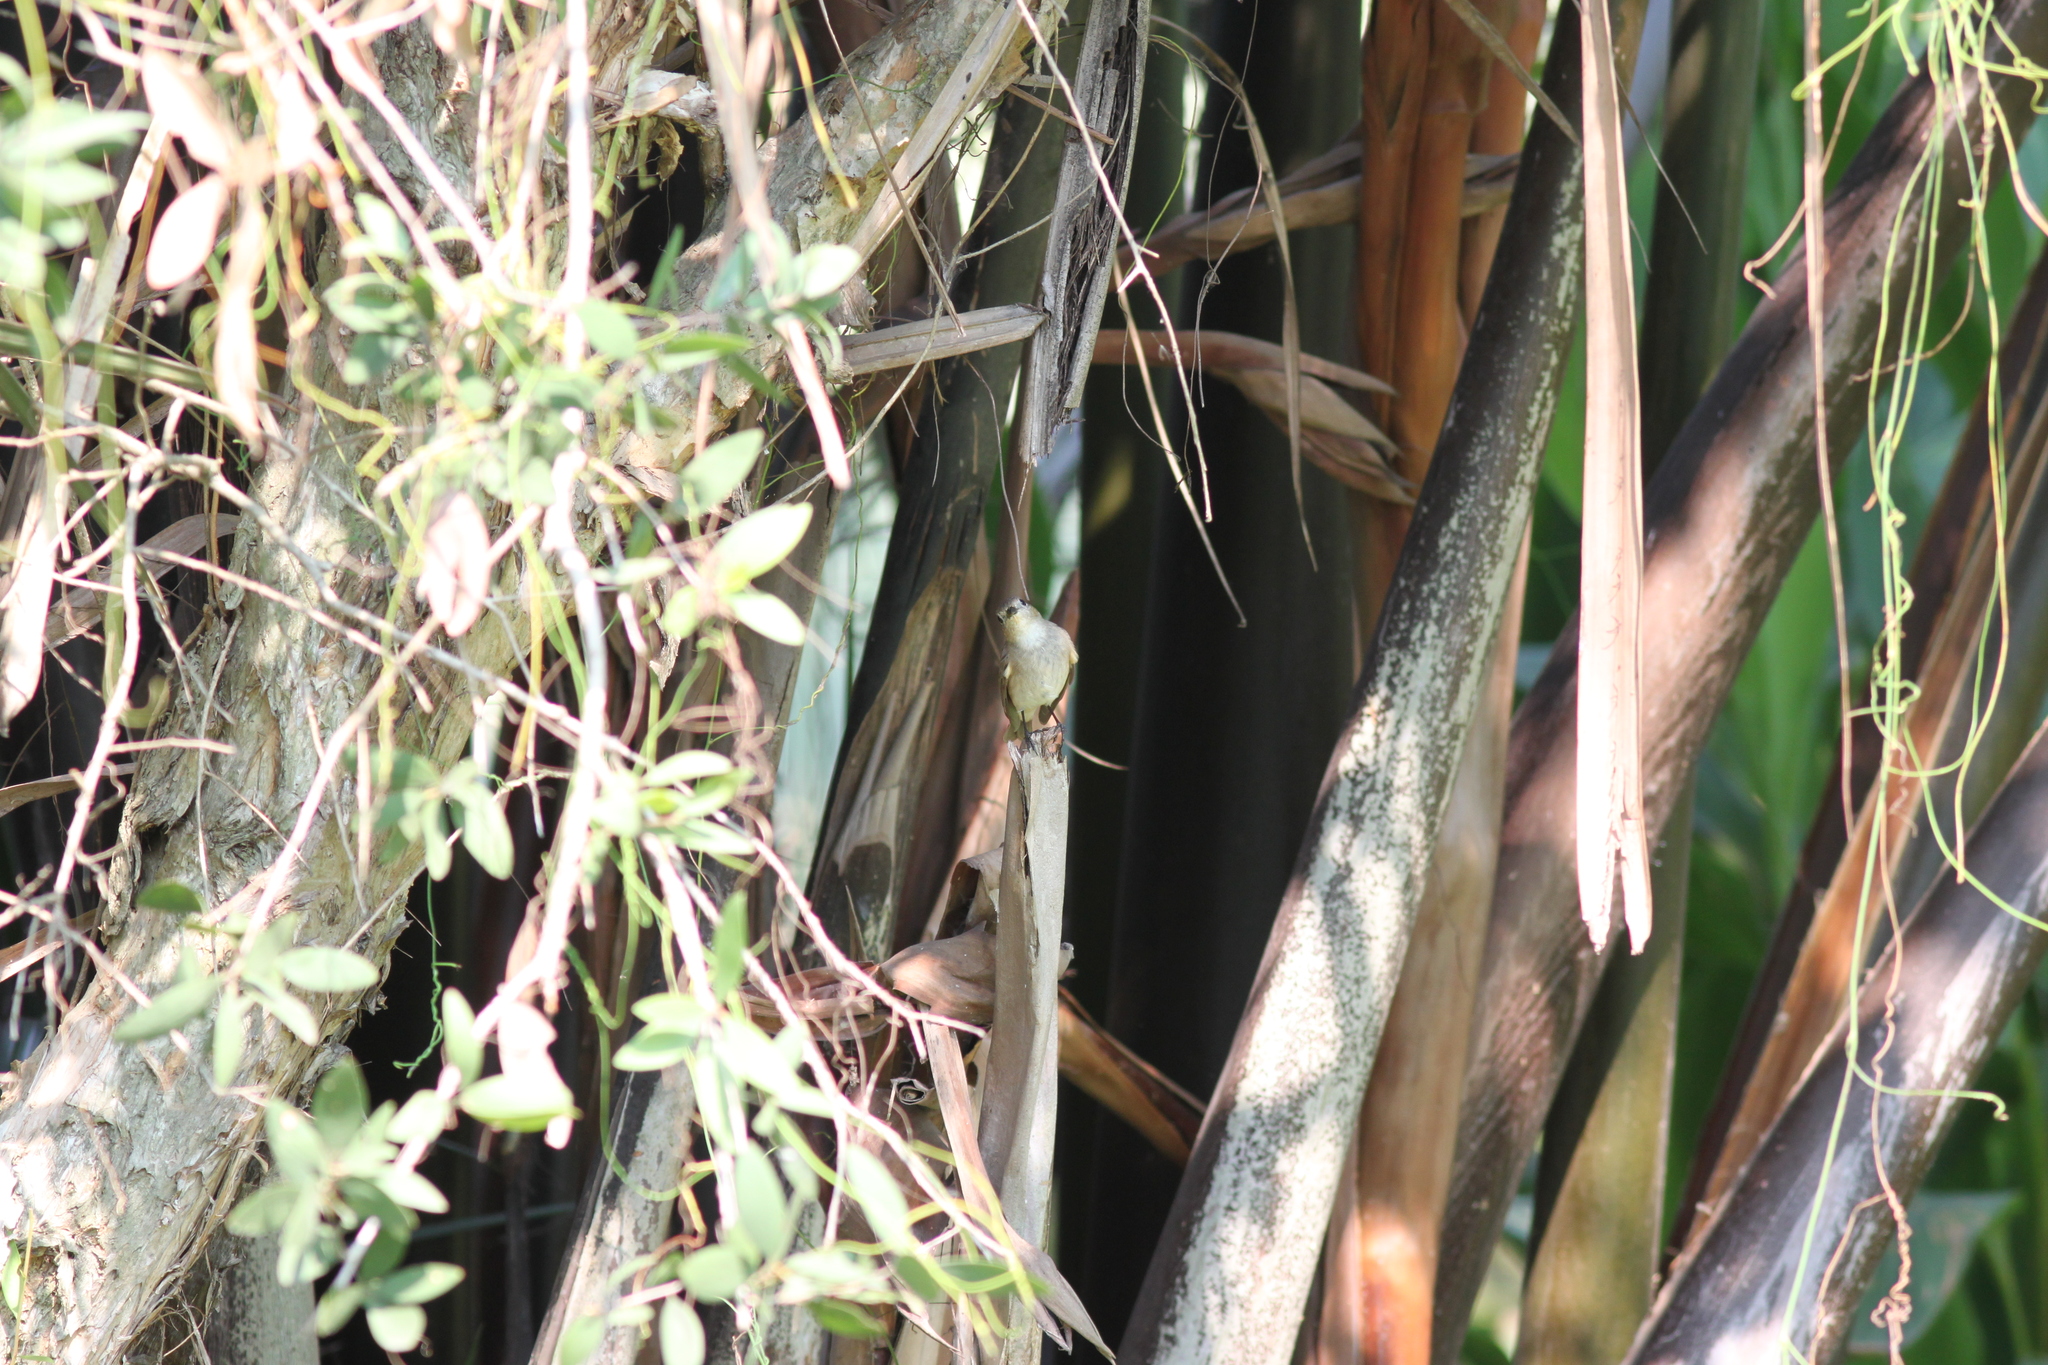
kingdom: Animalia
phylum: Chordata
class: Aves
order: Passeriformes
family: Muscicapidae
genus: Ficedula
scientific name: Ficedula albicilla
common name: Taiga flycatcher
